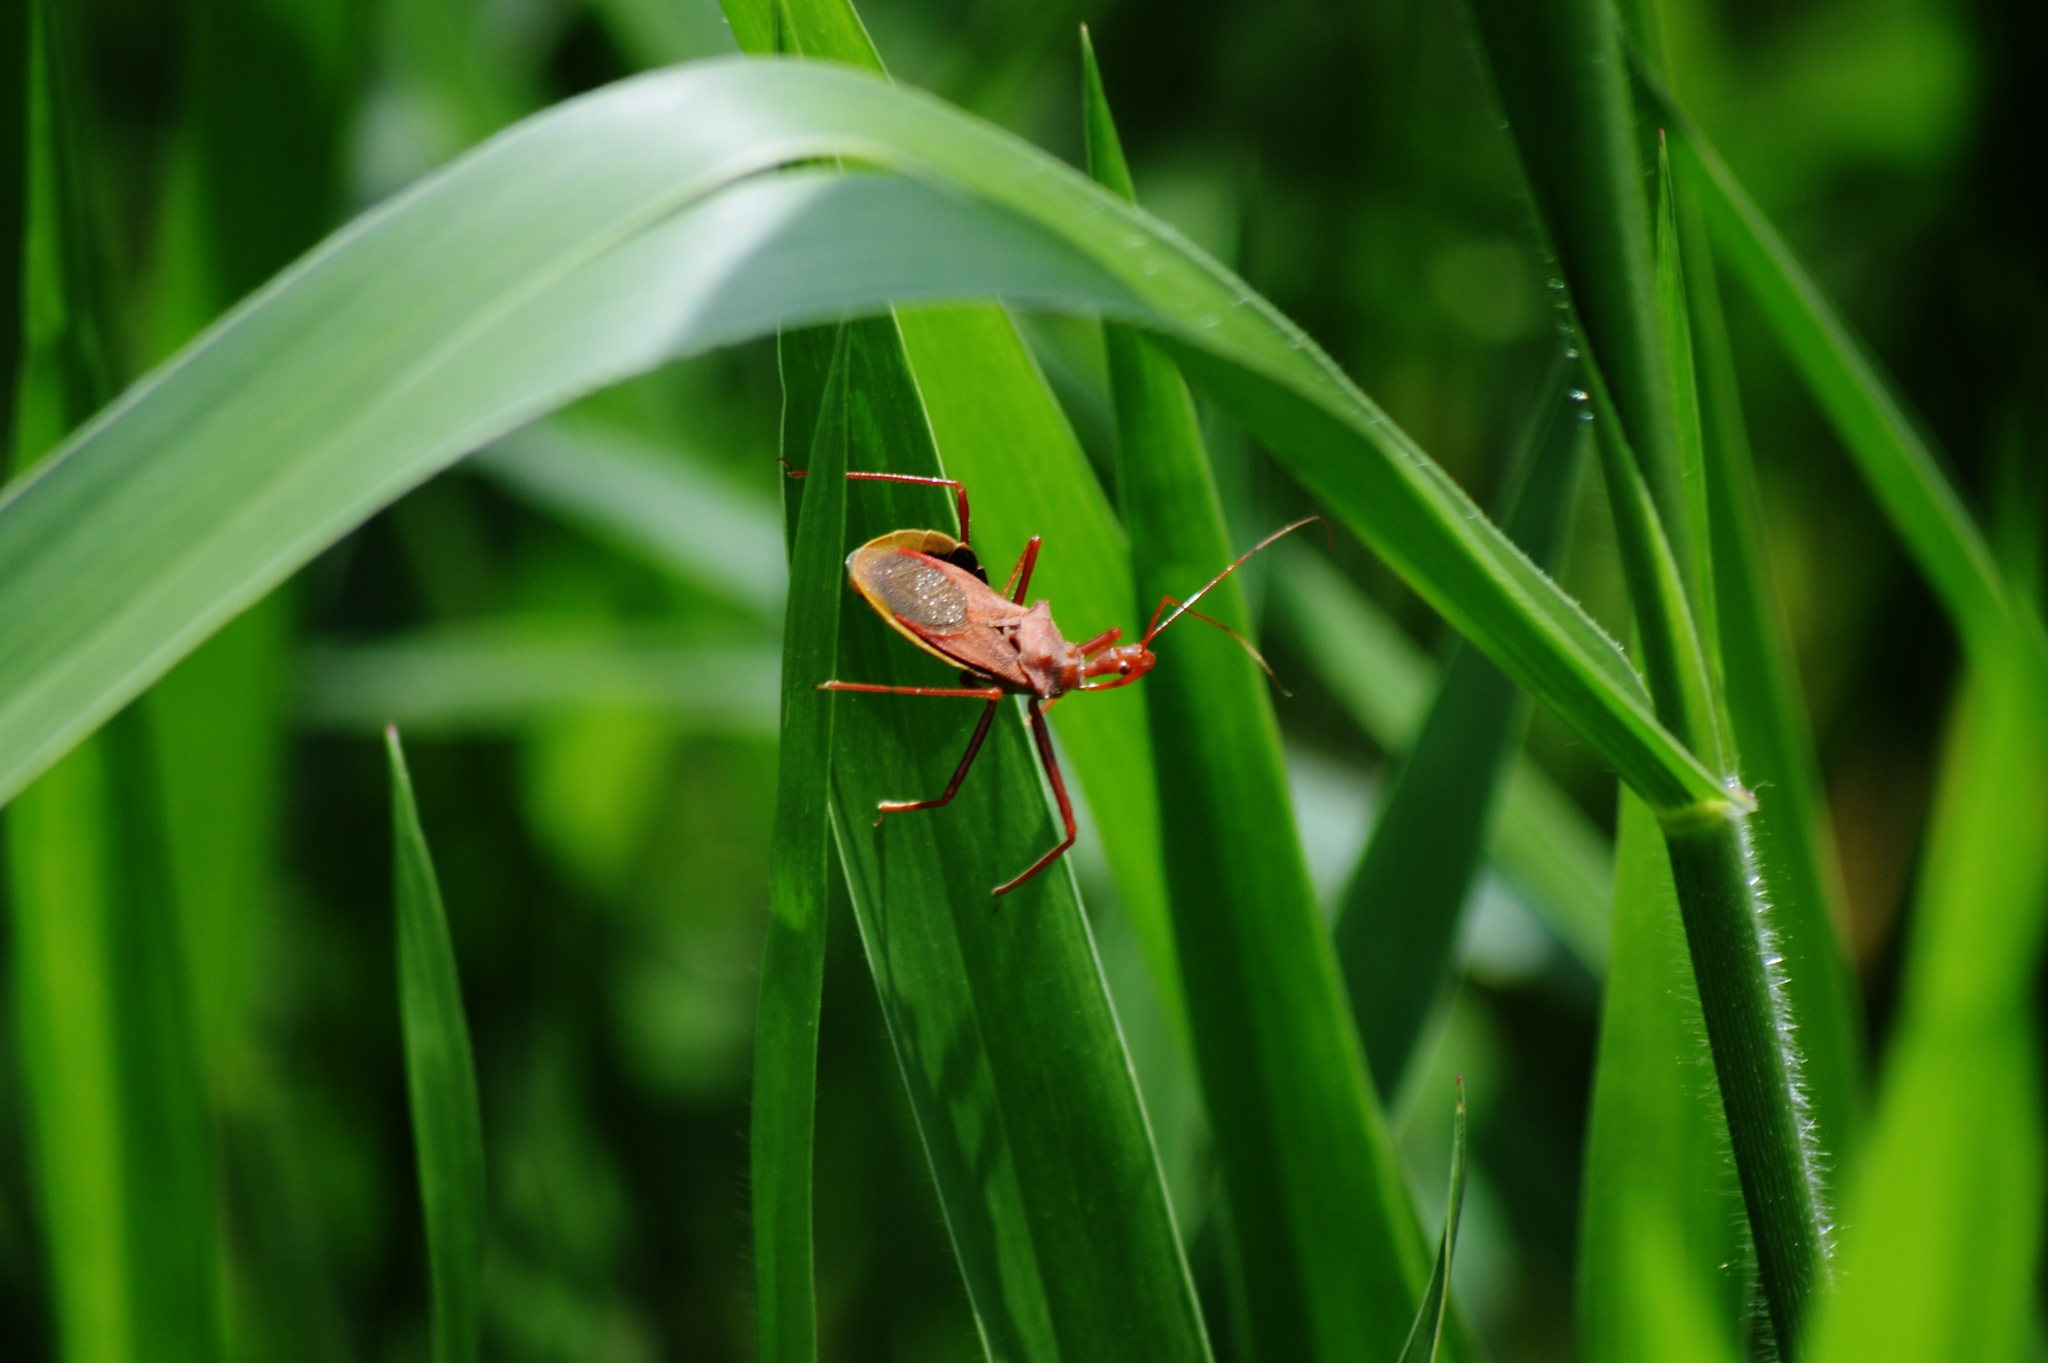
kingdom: Animalia
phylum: Arthropoda
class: Insecta
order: Hemiptera
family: Reduviidae
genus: Montina
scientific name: Montina confusa
